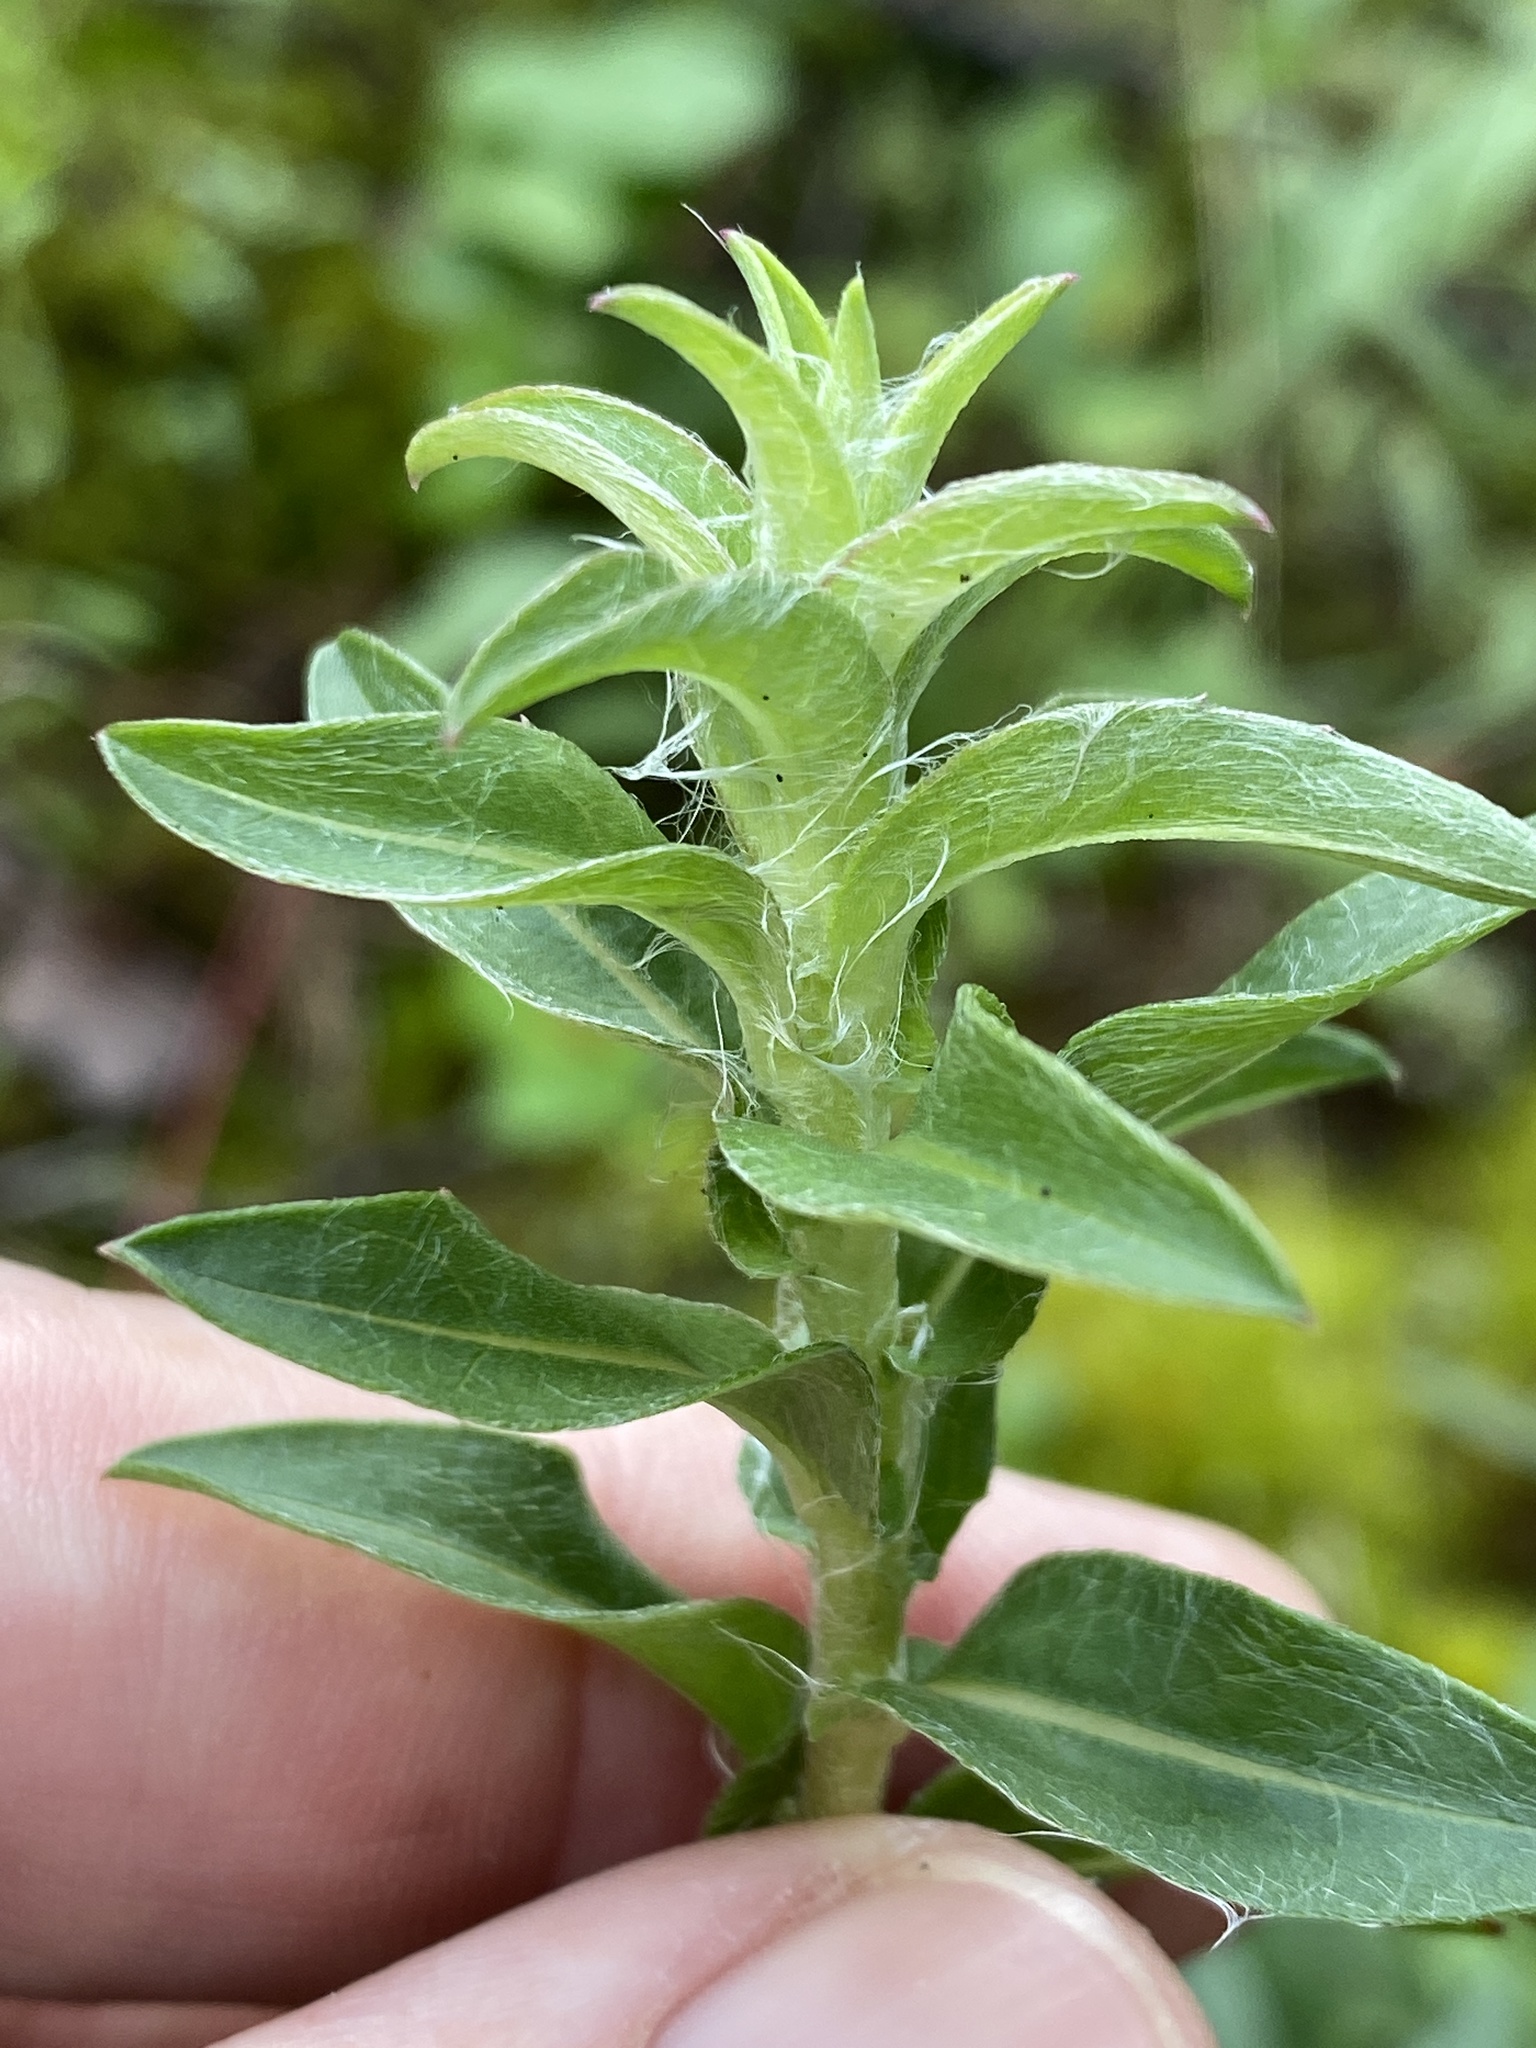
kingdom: Plantae
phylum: Tracheophyta
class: Magnoliopsida
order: Asterales
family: Asteraceae
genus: Chrysopsis
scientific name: Chrysopsis mariana
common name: Maryland golden-aster
